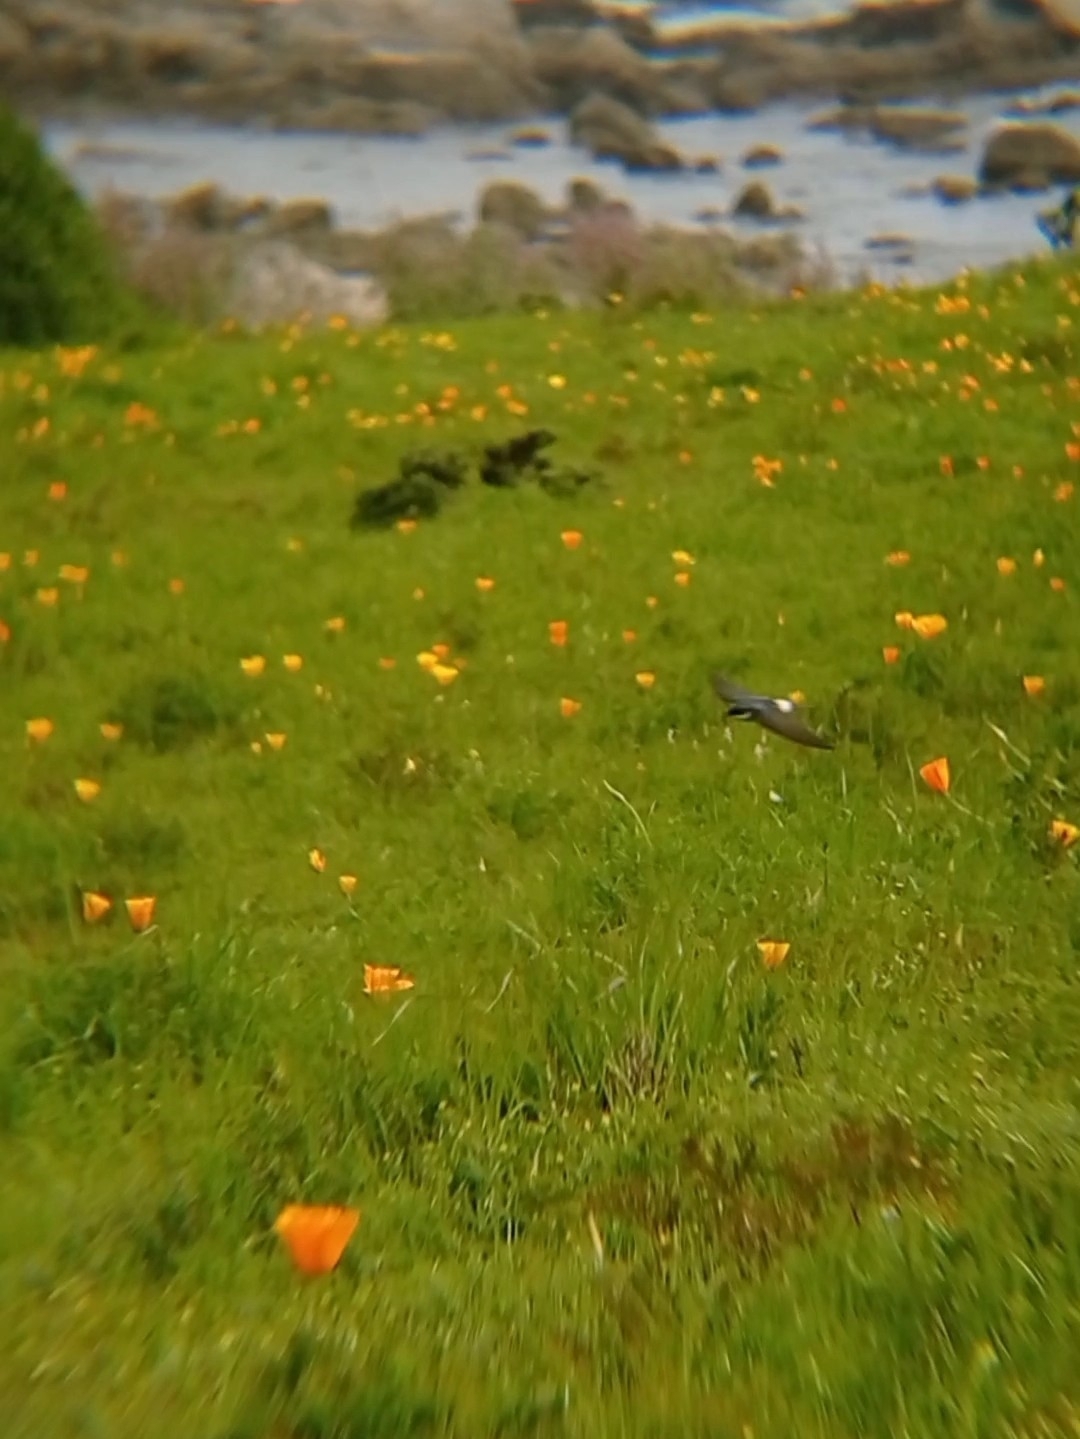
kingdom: Animalia
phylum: Chordata
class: Aves
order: Passeriformes
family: Hirundinidae
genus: Tachycineta
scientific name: Tachycineta leucopyga
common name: Chilean swallow
